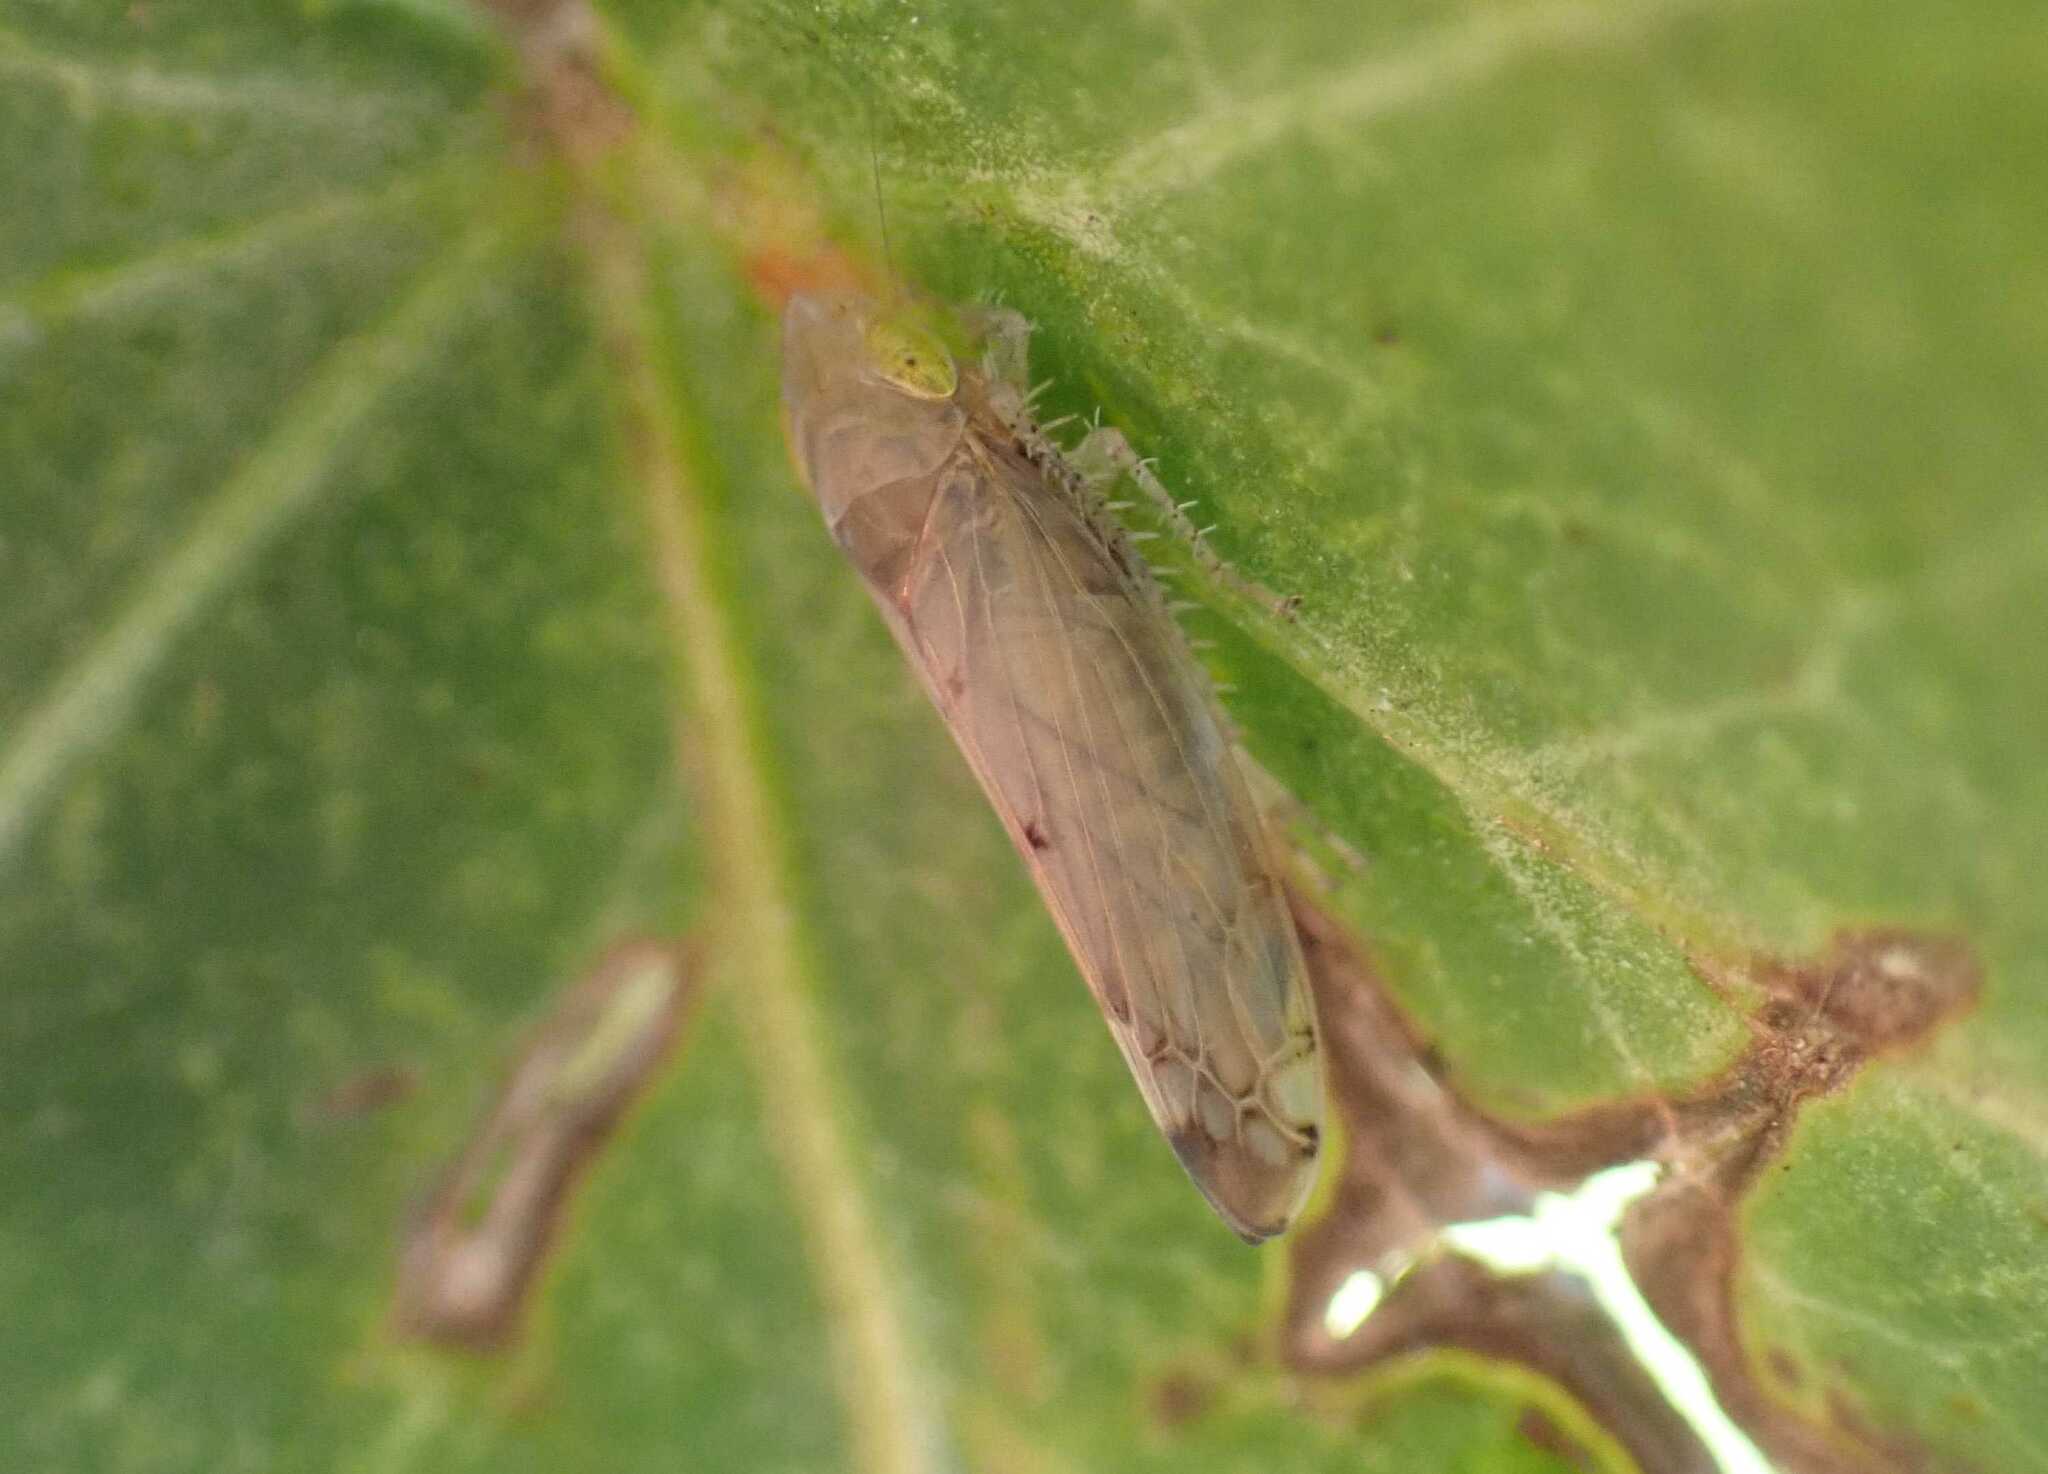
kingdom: Animalia
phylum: Arthropoda
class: Insecta
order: Hemiptera
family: Cicadellidae
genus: Synophropsis
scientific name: Synophropsis lauri
